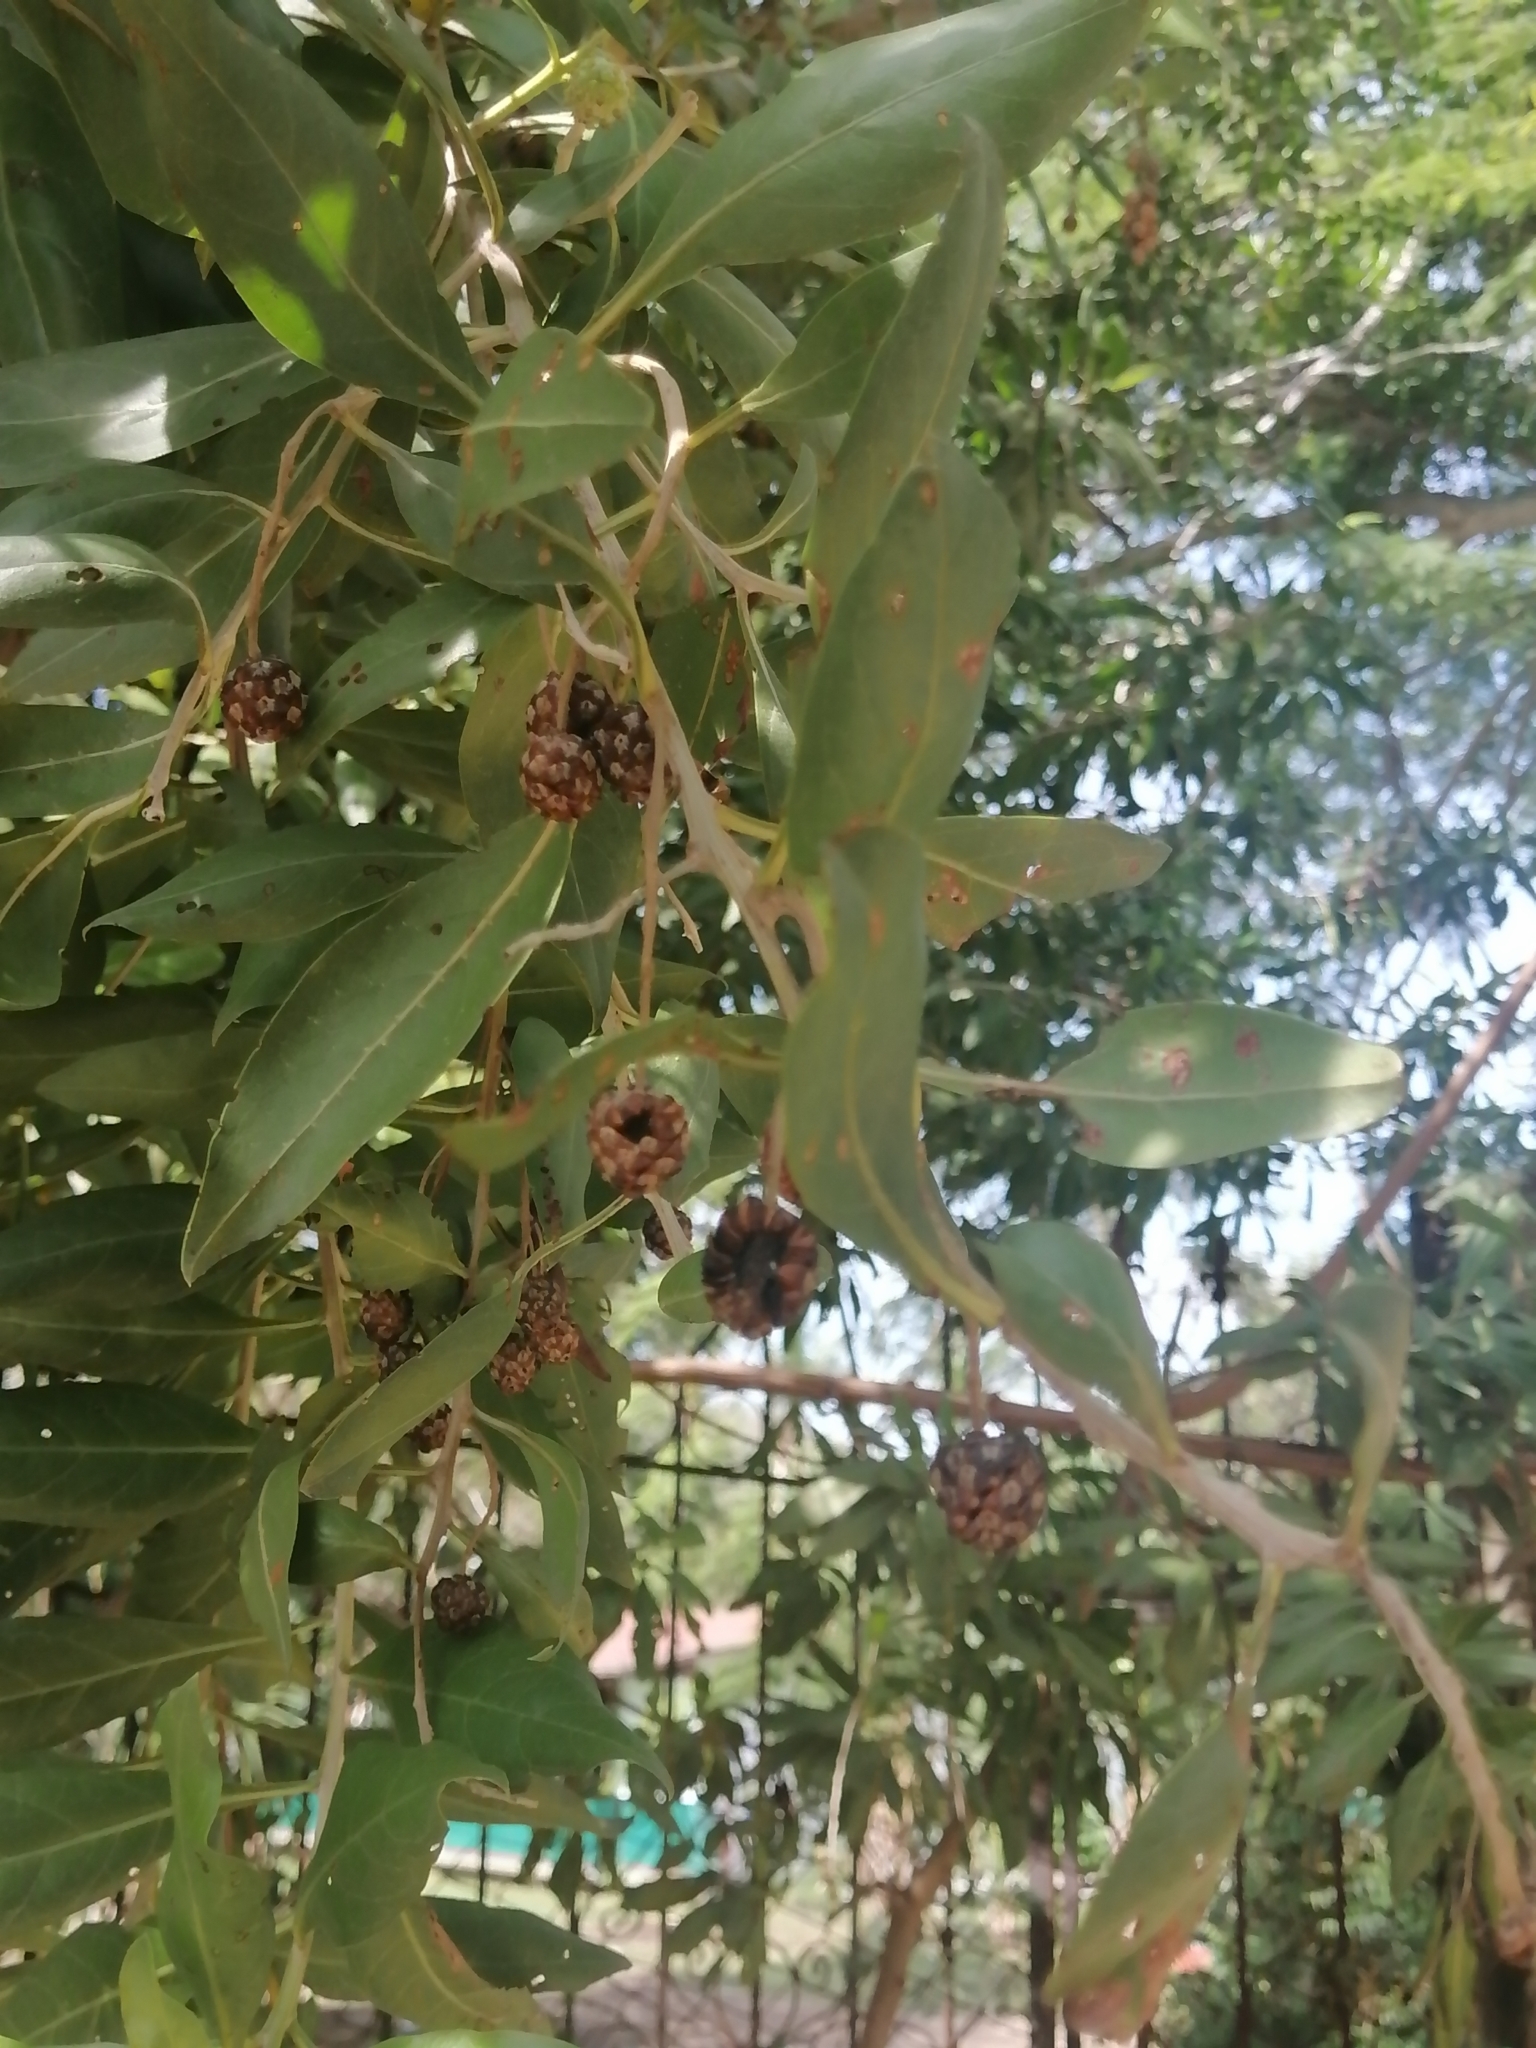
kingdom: Plantae
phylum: Tracheophyta
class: Magnoliopsida
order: Myrtales
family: Combretaceae
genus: Conocarpus
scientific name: Conocarpus erectus
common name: Button mangrove
